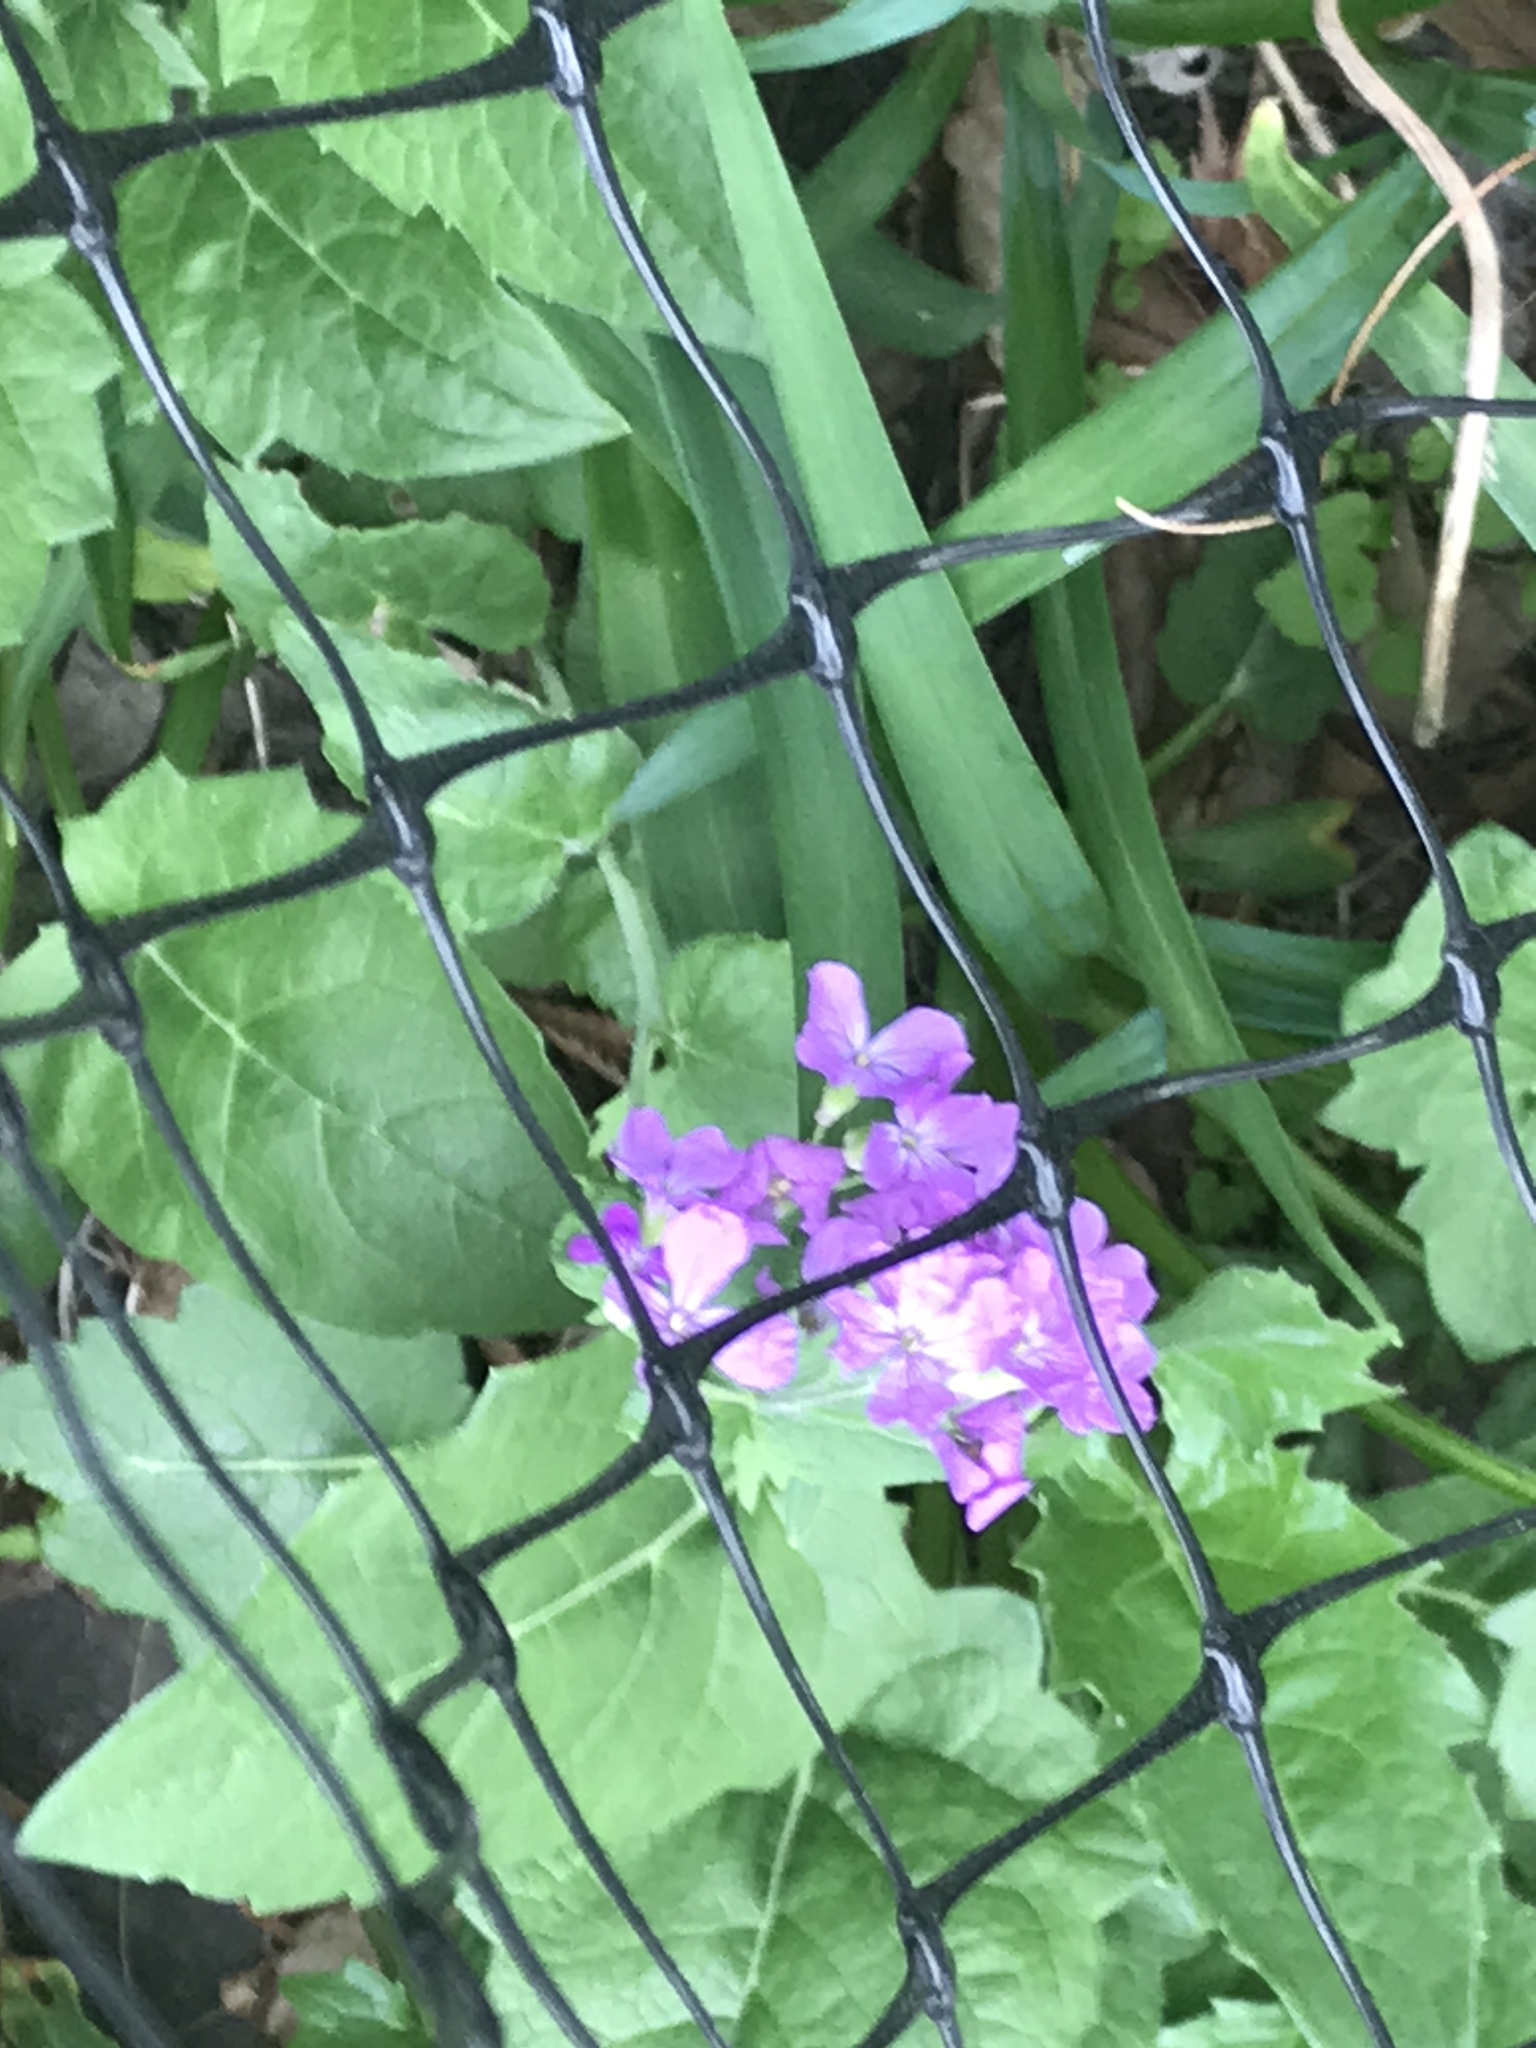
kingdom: Plantae
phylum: Tracheophyta
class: Magnoliopsida
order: Brassicales
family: Brassicaceae
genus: Lunaria
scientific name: Lunaria annua
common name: Honesty
